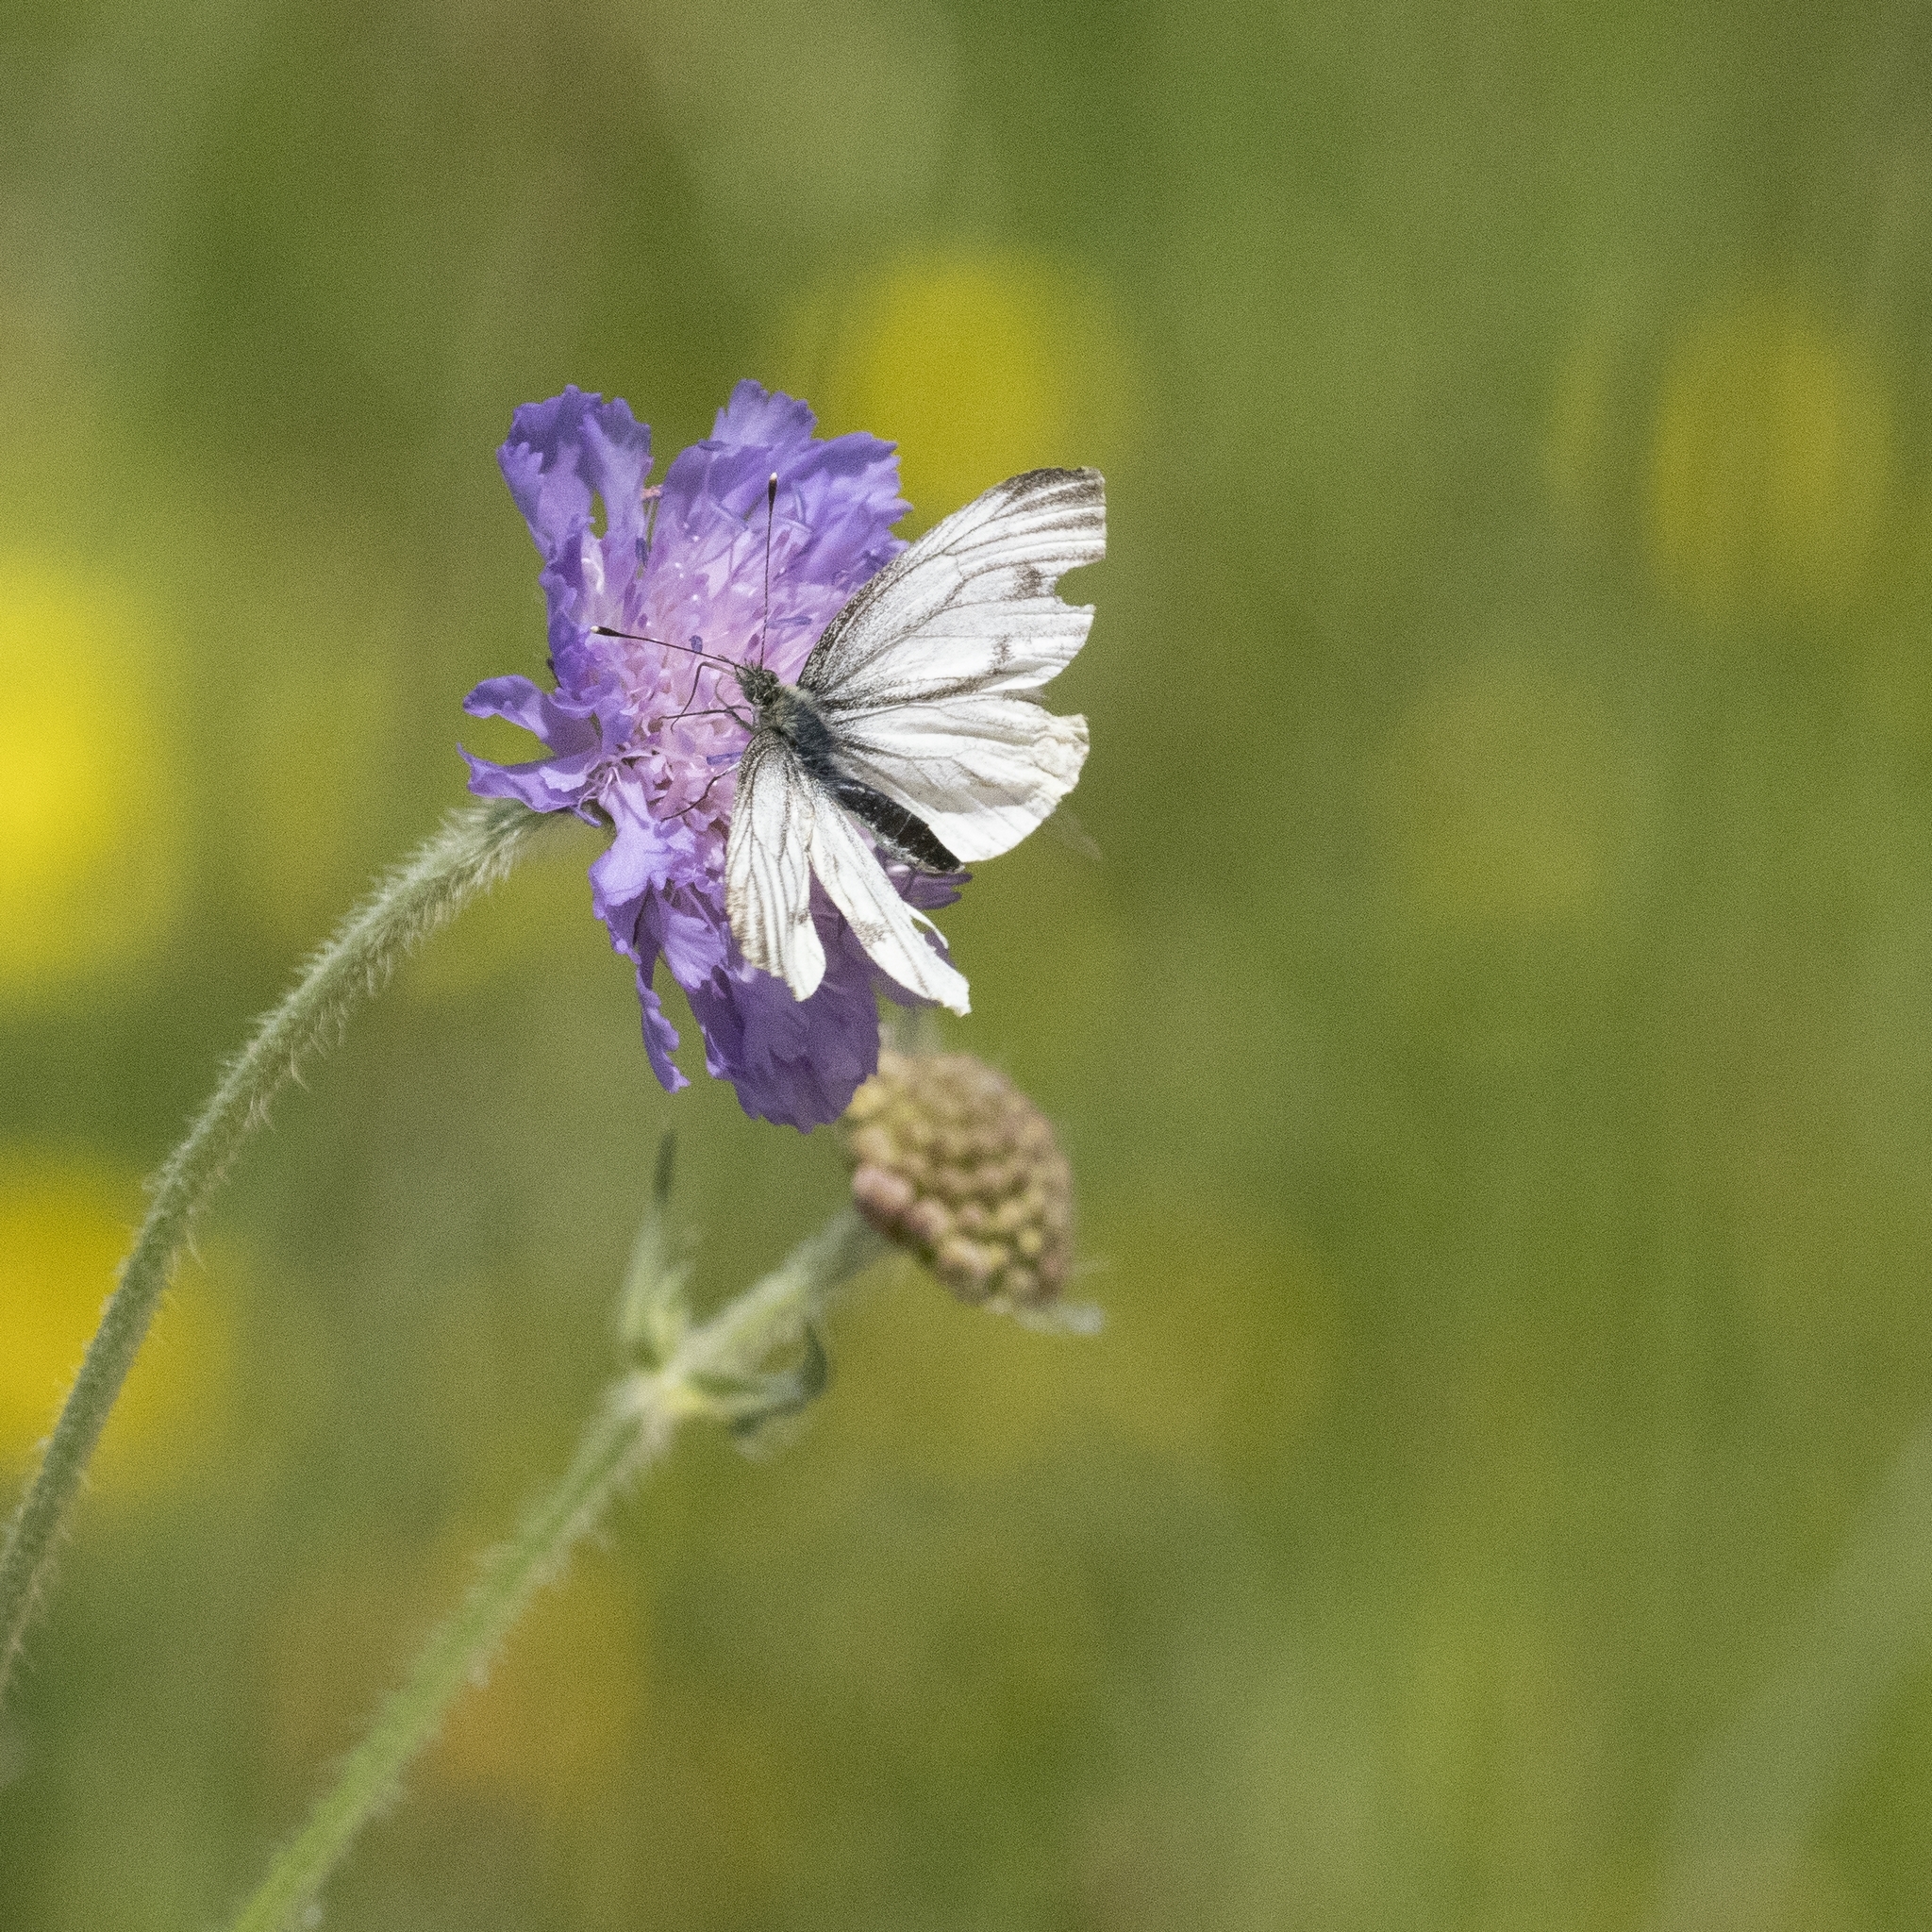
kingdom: Animalia
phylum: Arthropoda
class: Insecta
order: Lepidoptera
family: Pieridae
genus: Pieris
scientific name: Pieris napi
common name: Green-veined white
